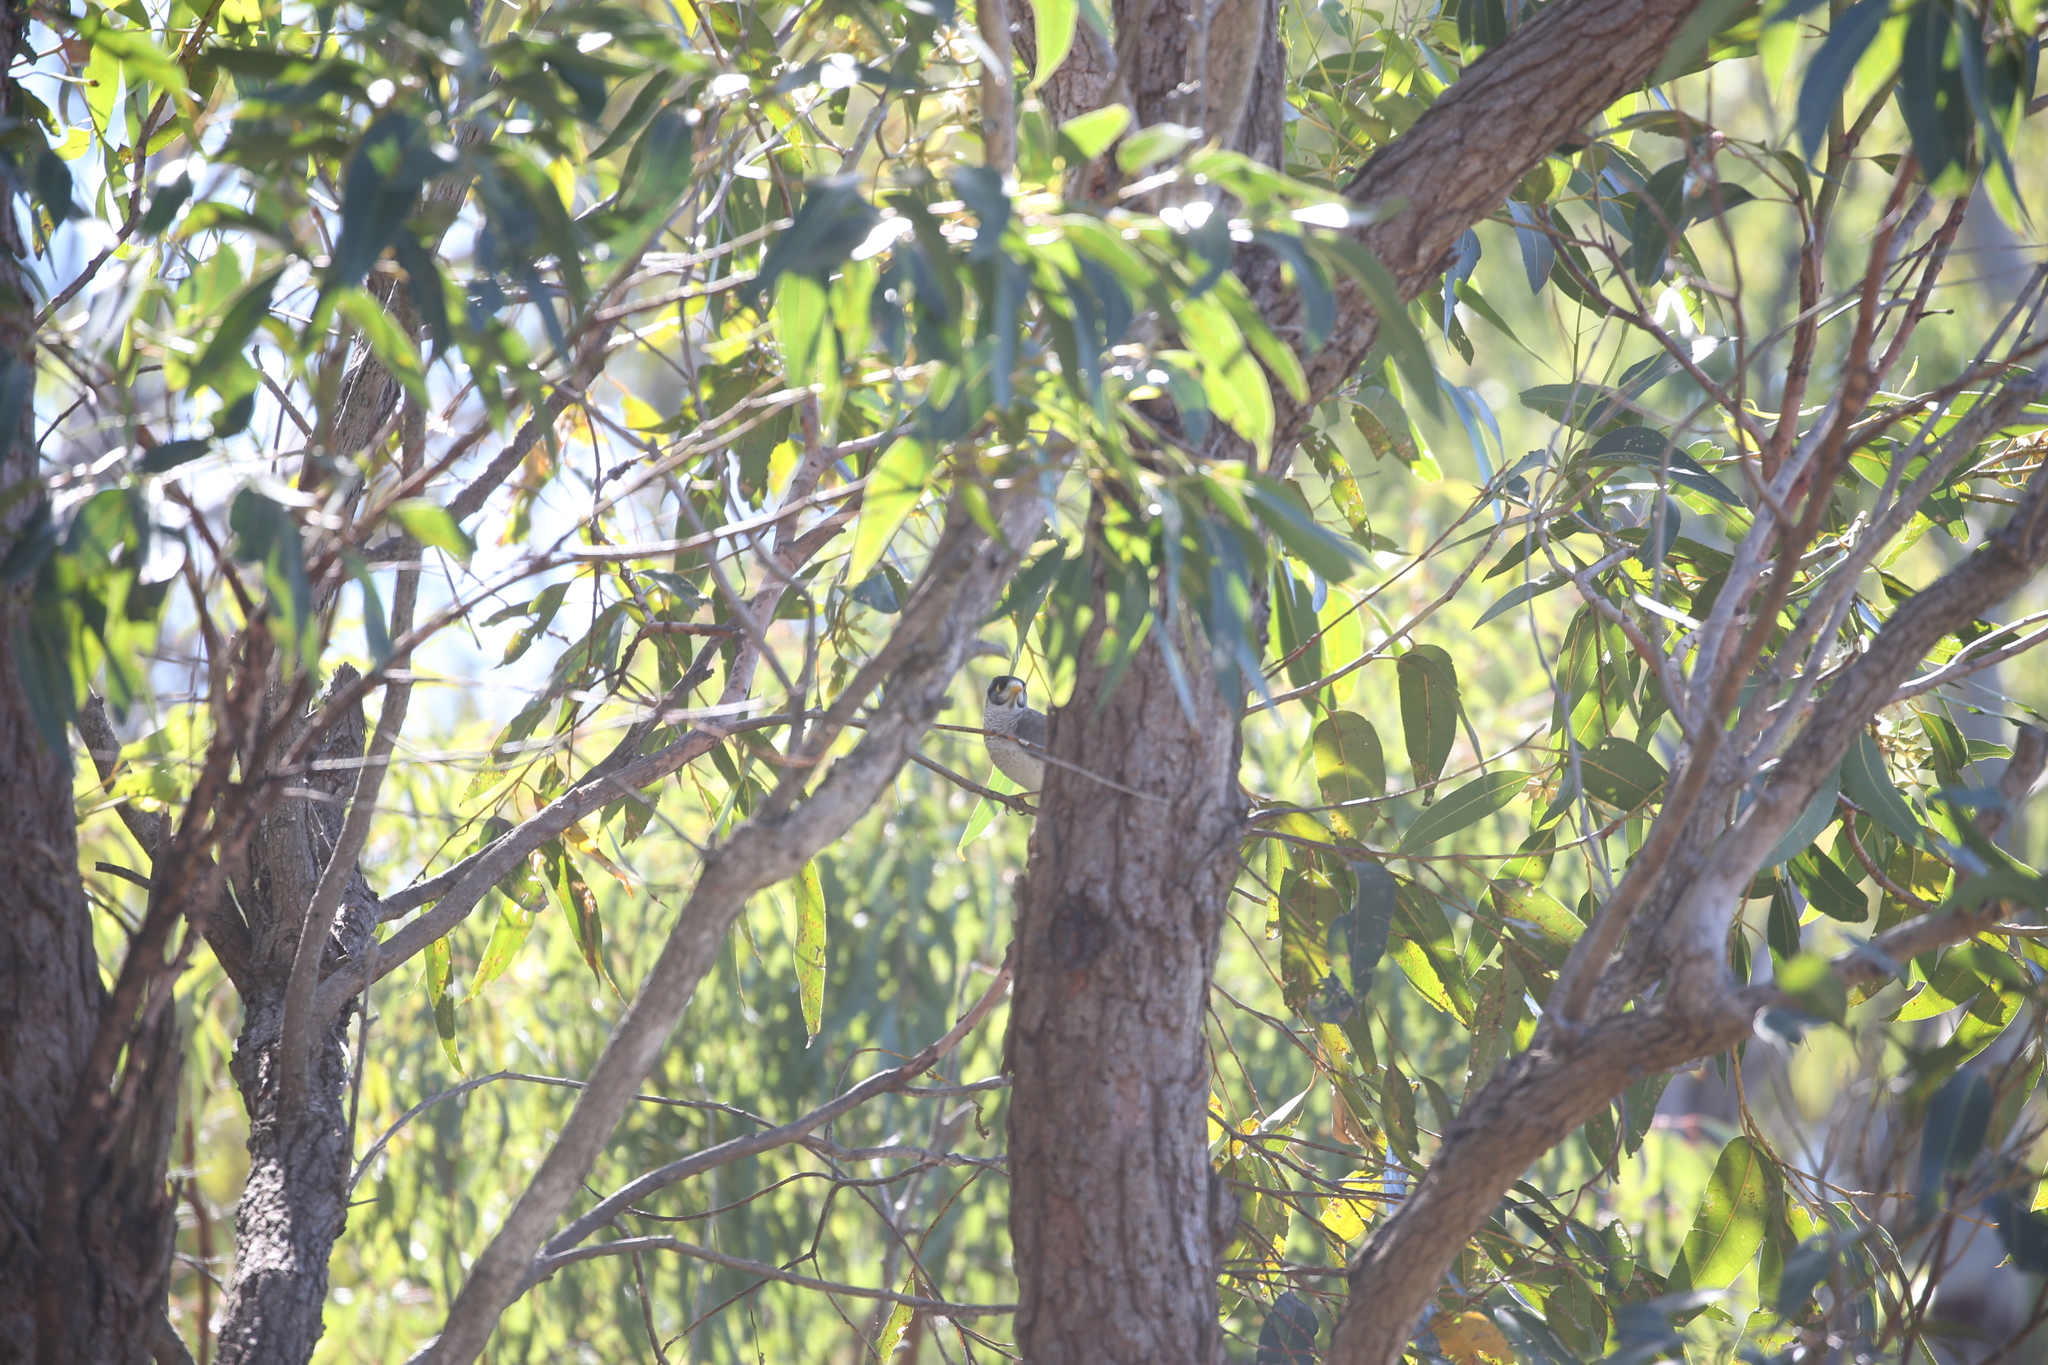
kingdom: Animalia
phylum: Chordata
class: Aves
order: Passeriformes
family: Meliphagidae
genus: Manorina
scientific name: Manorina melanocephala
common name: Noisy miner
